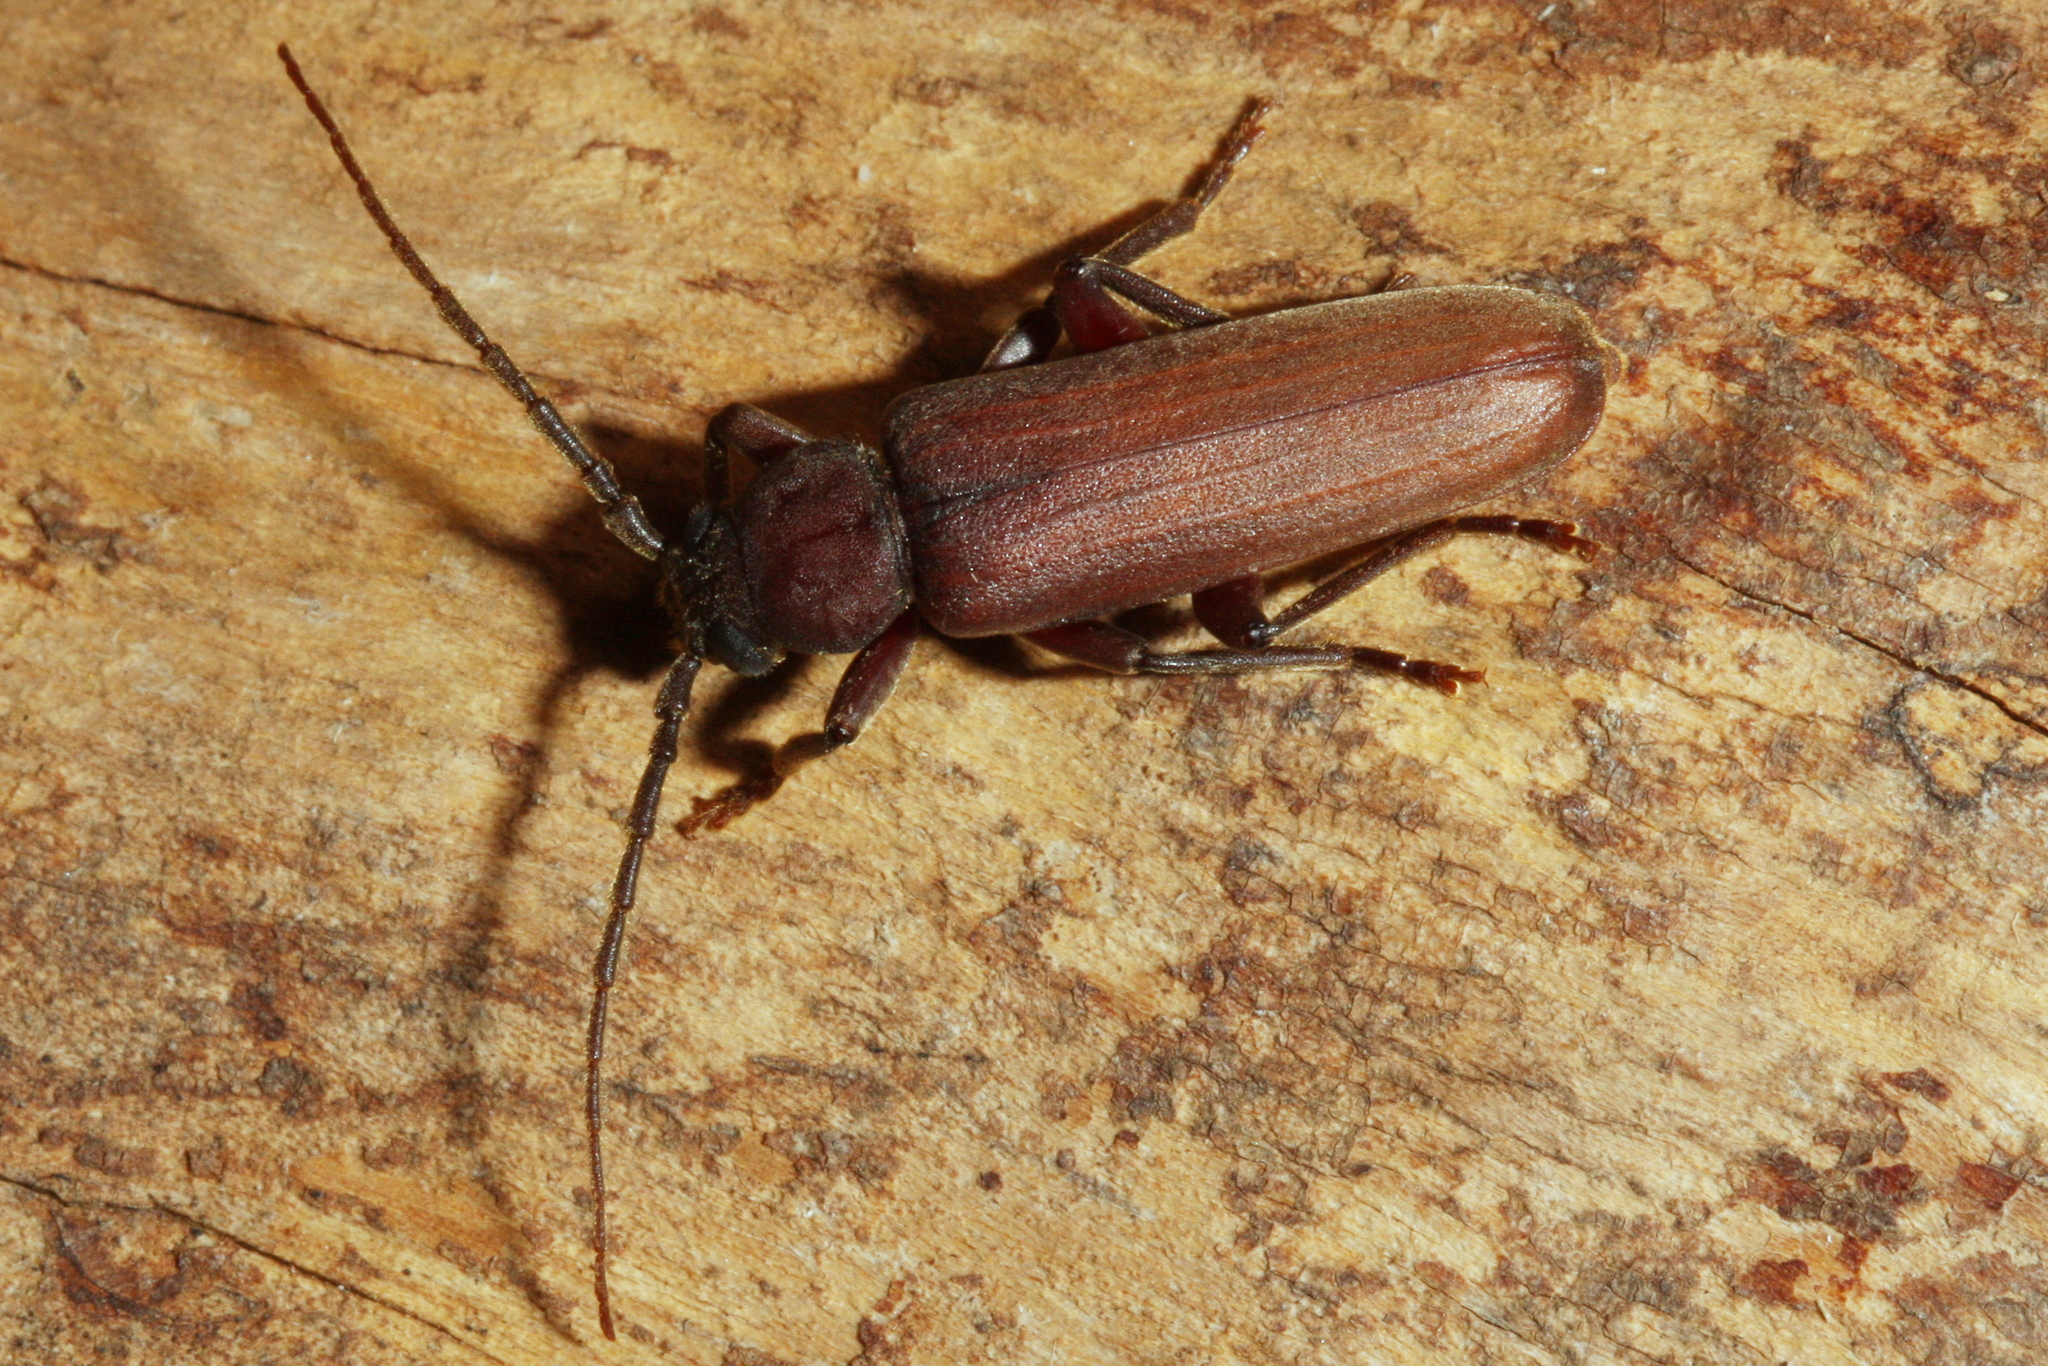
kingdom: Animalia
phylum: Arthropoda
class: Insecta
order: Coleoptera
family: Cerambycidae
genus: Arhopalus
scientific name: Arhopalus rusticus
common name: Rust pine borer
